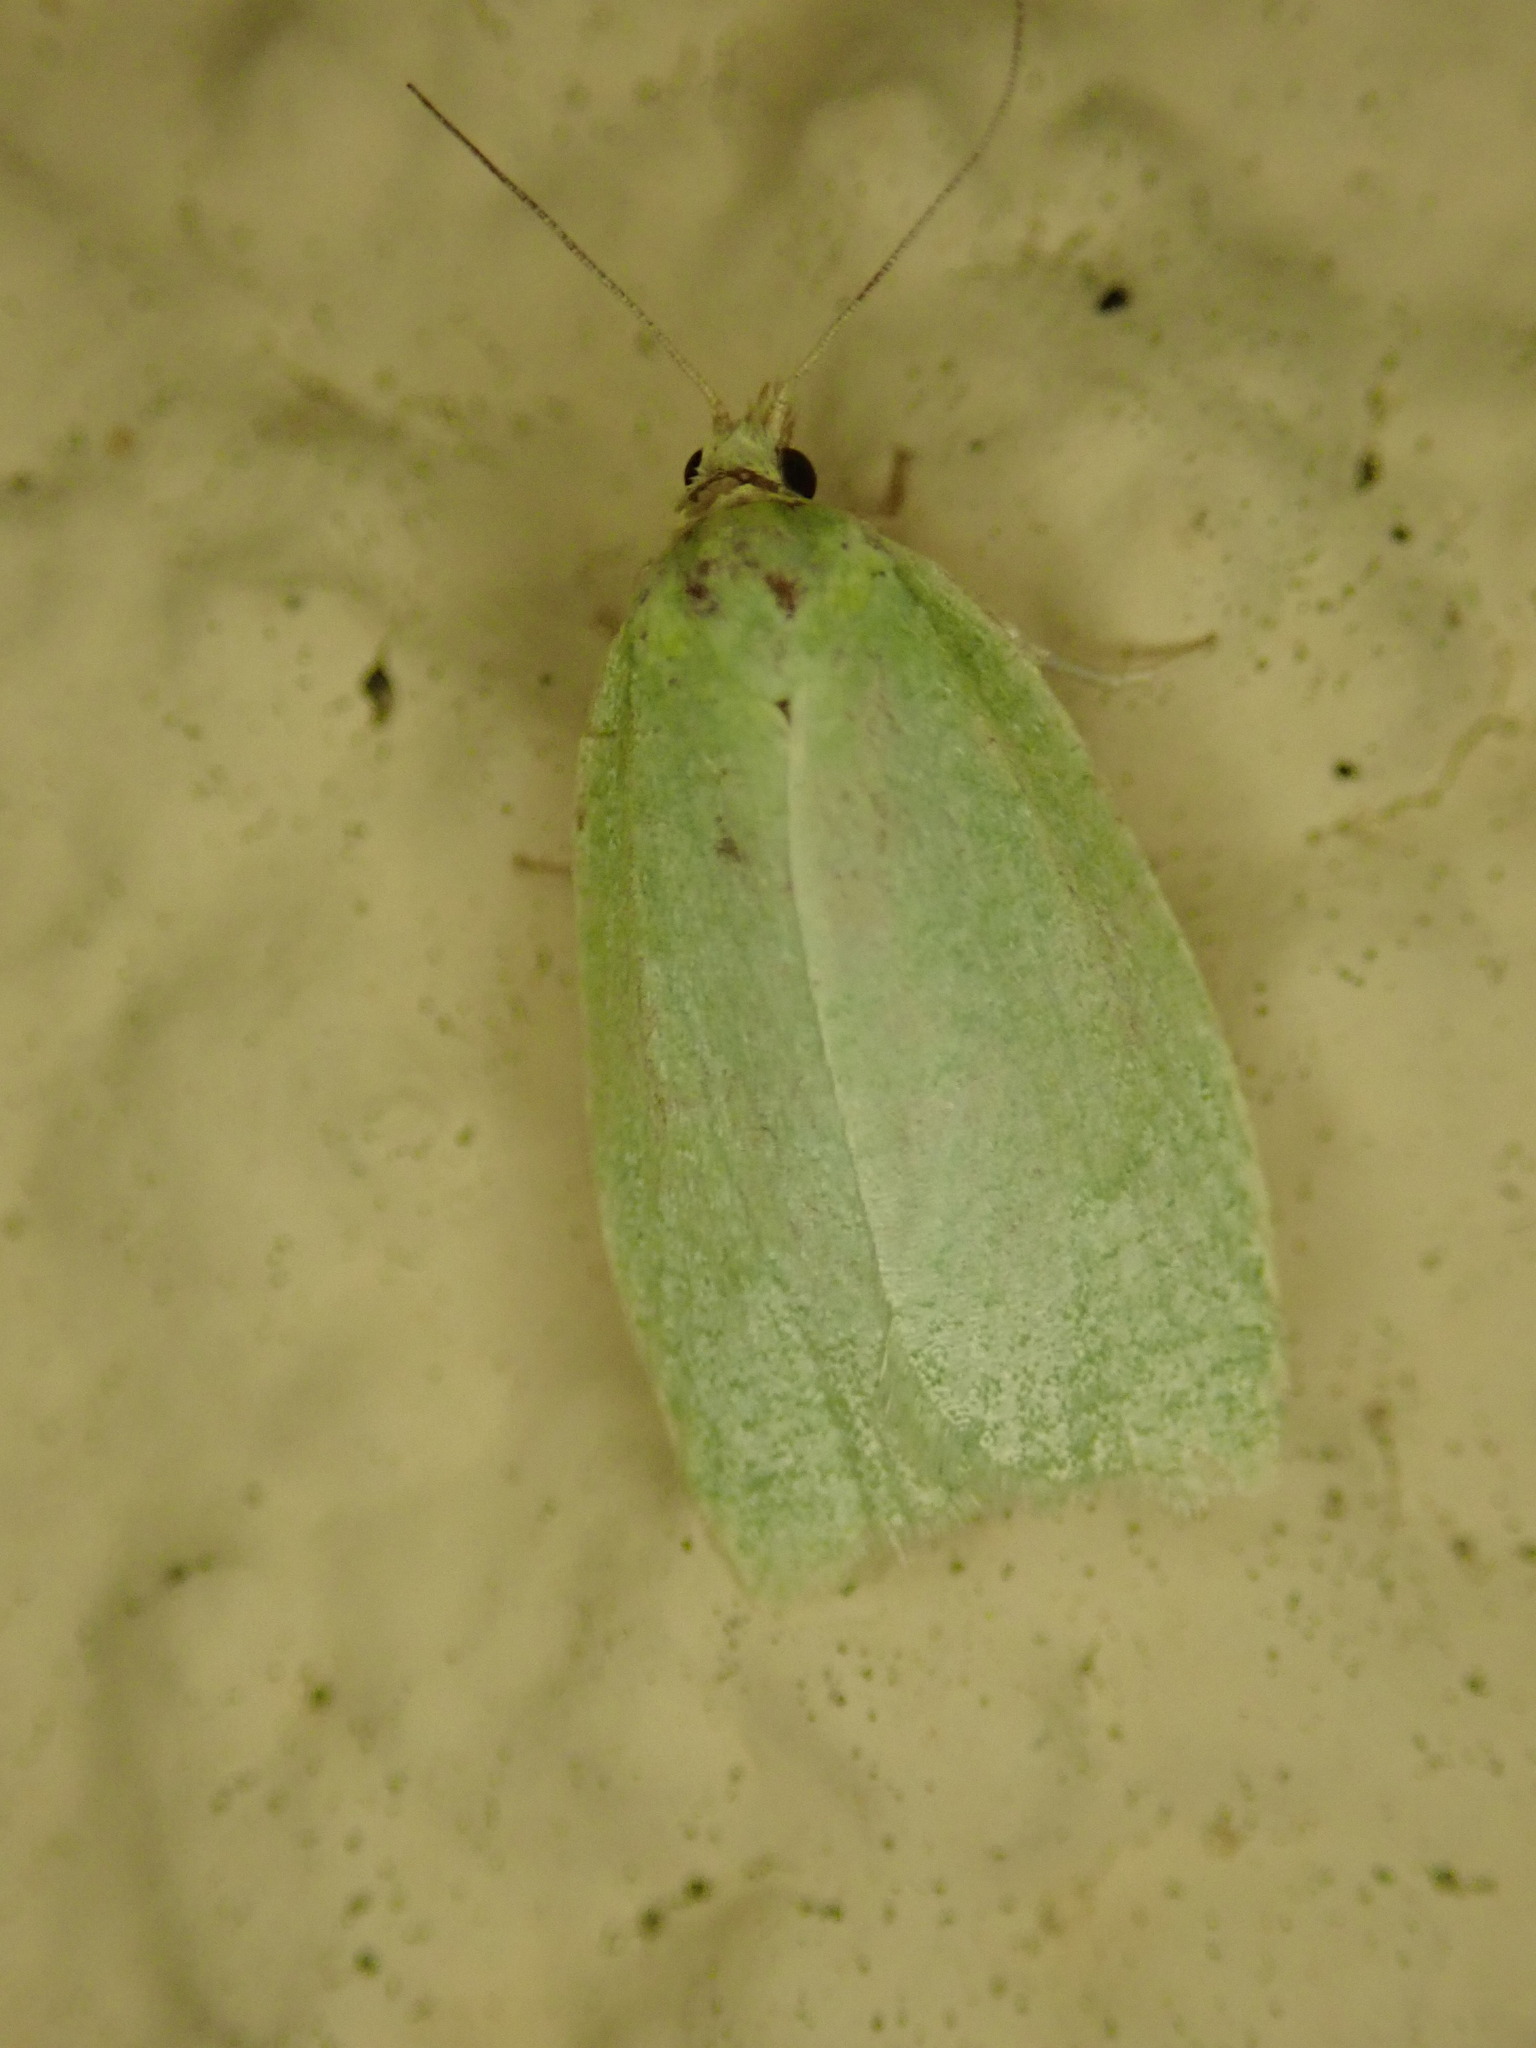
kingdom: Animalia
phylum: Arthropoda
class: Insecta
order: Lepidoptera
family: Tortricidae
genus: Tortrix
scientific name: Tortrix viridana
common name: Green oak tortrix
